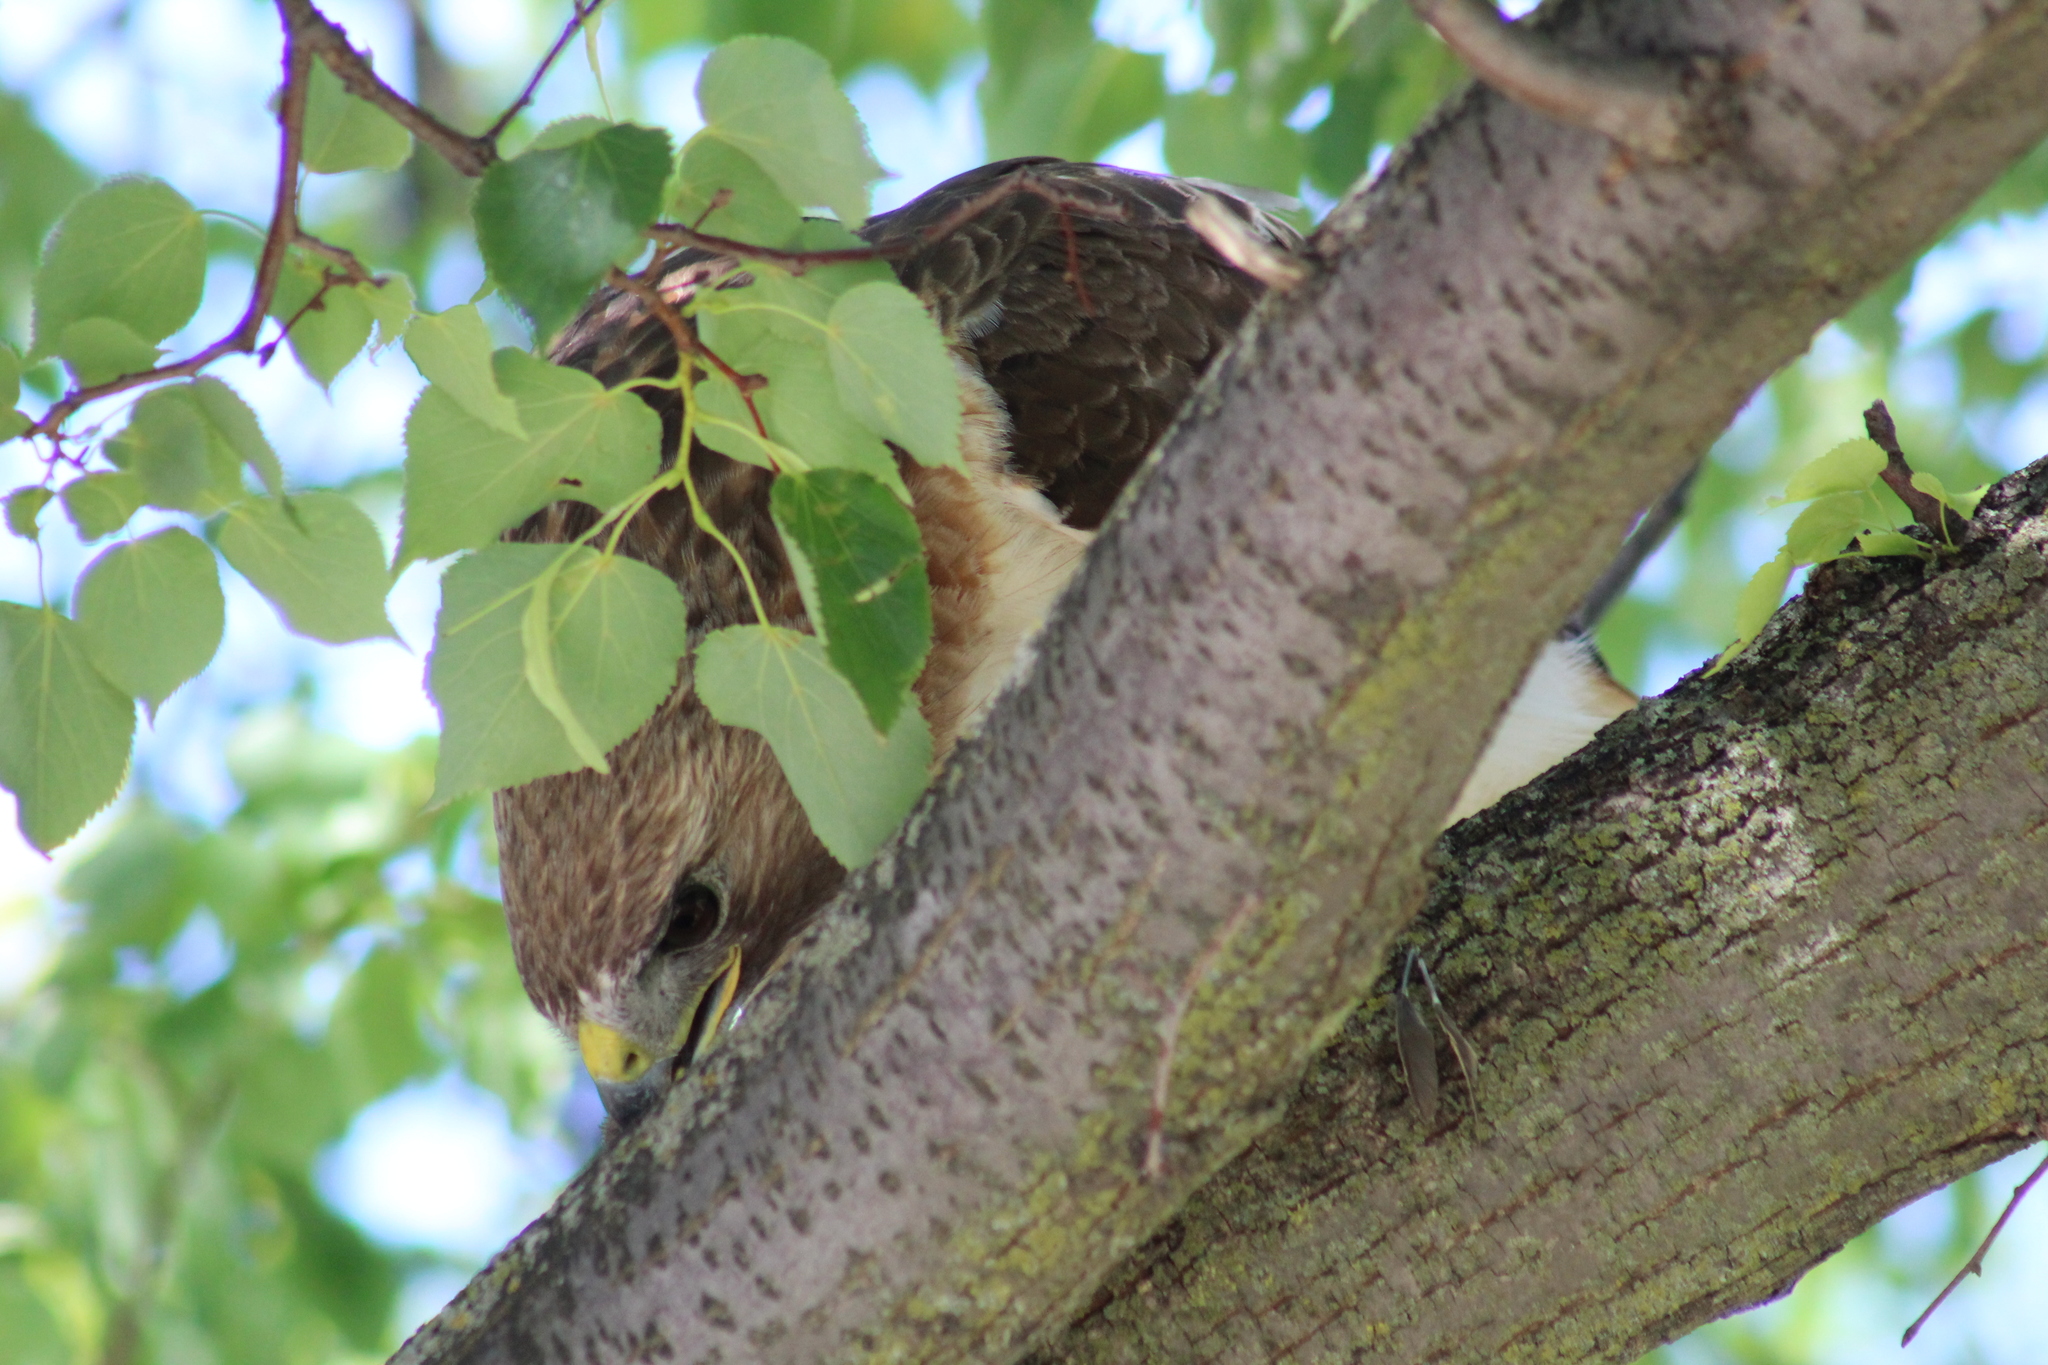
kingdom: Animalia
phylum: Chordata
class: Aves
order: Accipitriformes
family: Accipitridae
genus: Buteo
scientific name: Buteo jamaicensis
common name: Red-tailed hawk
